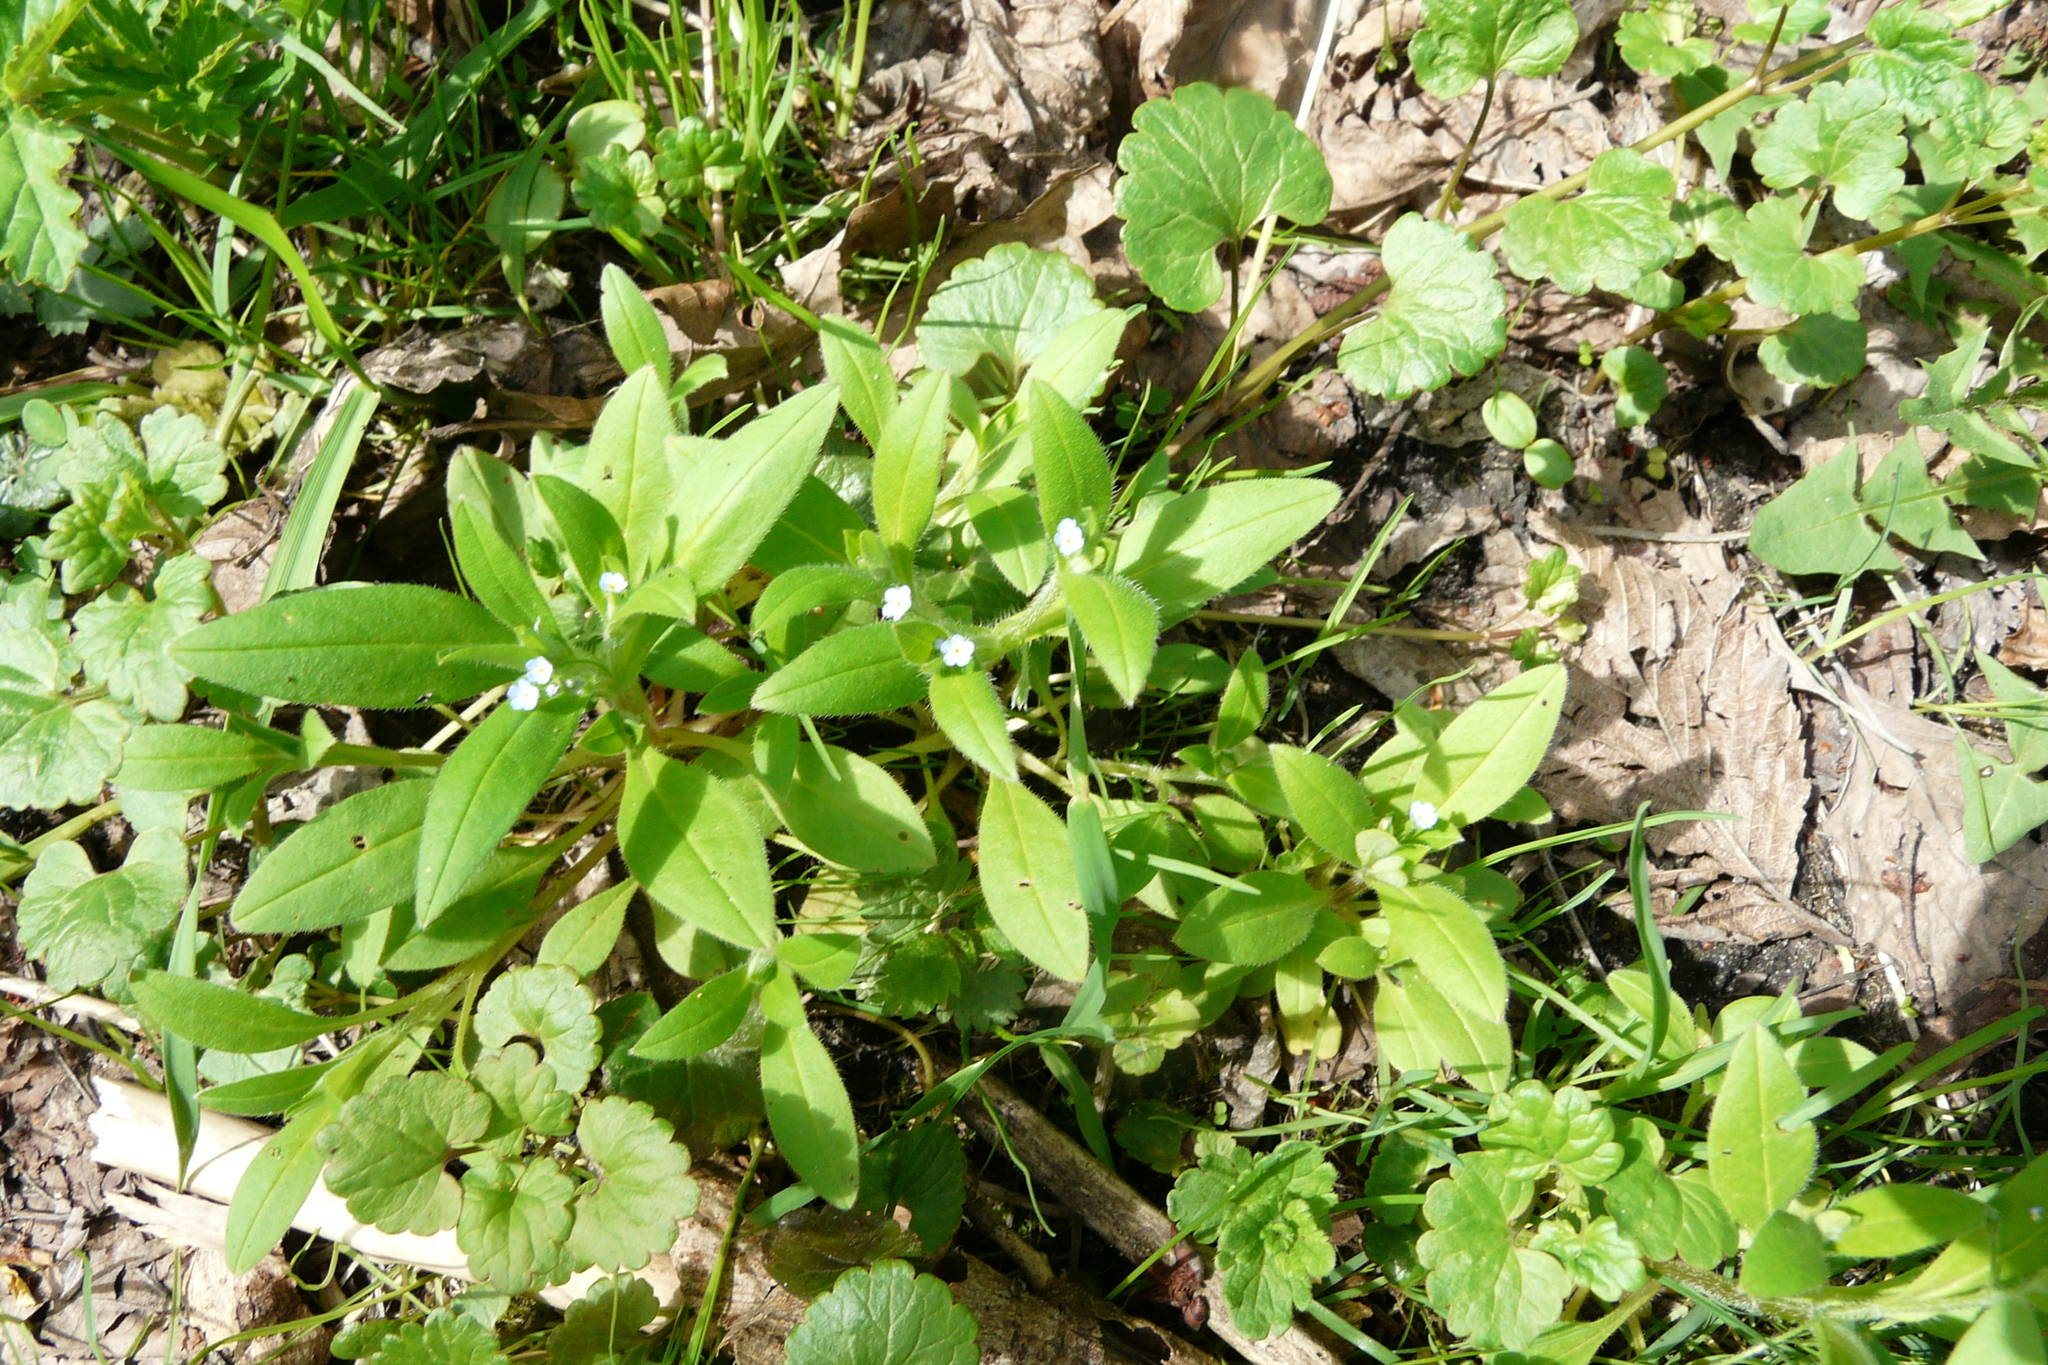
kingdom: Plantae
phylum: Tracheophyta
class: Magnoliopsida
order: Boraginales
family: Boraginaceae
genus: Myosotis
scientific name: Myosotis sparsiflora
